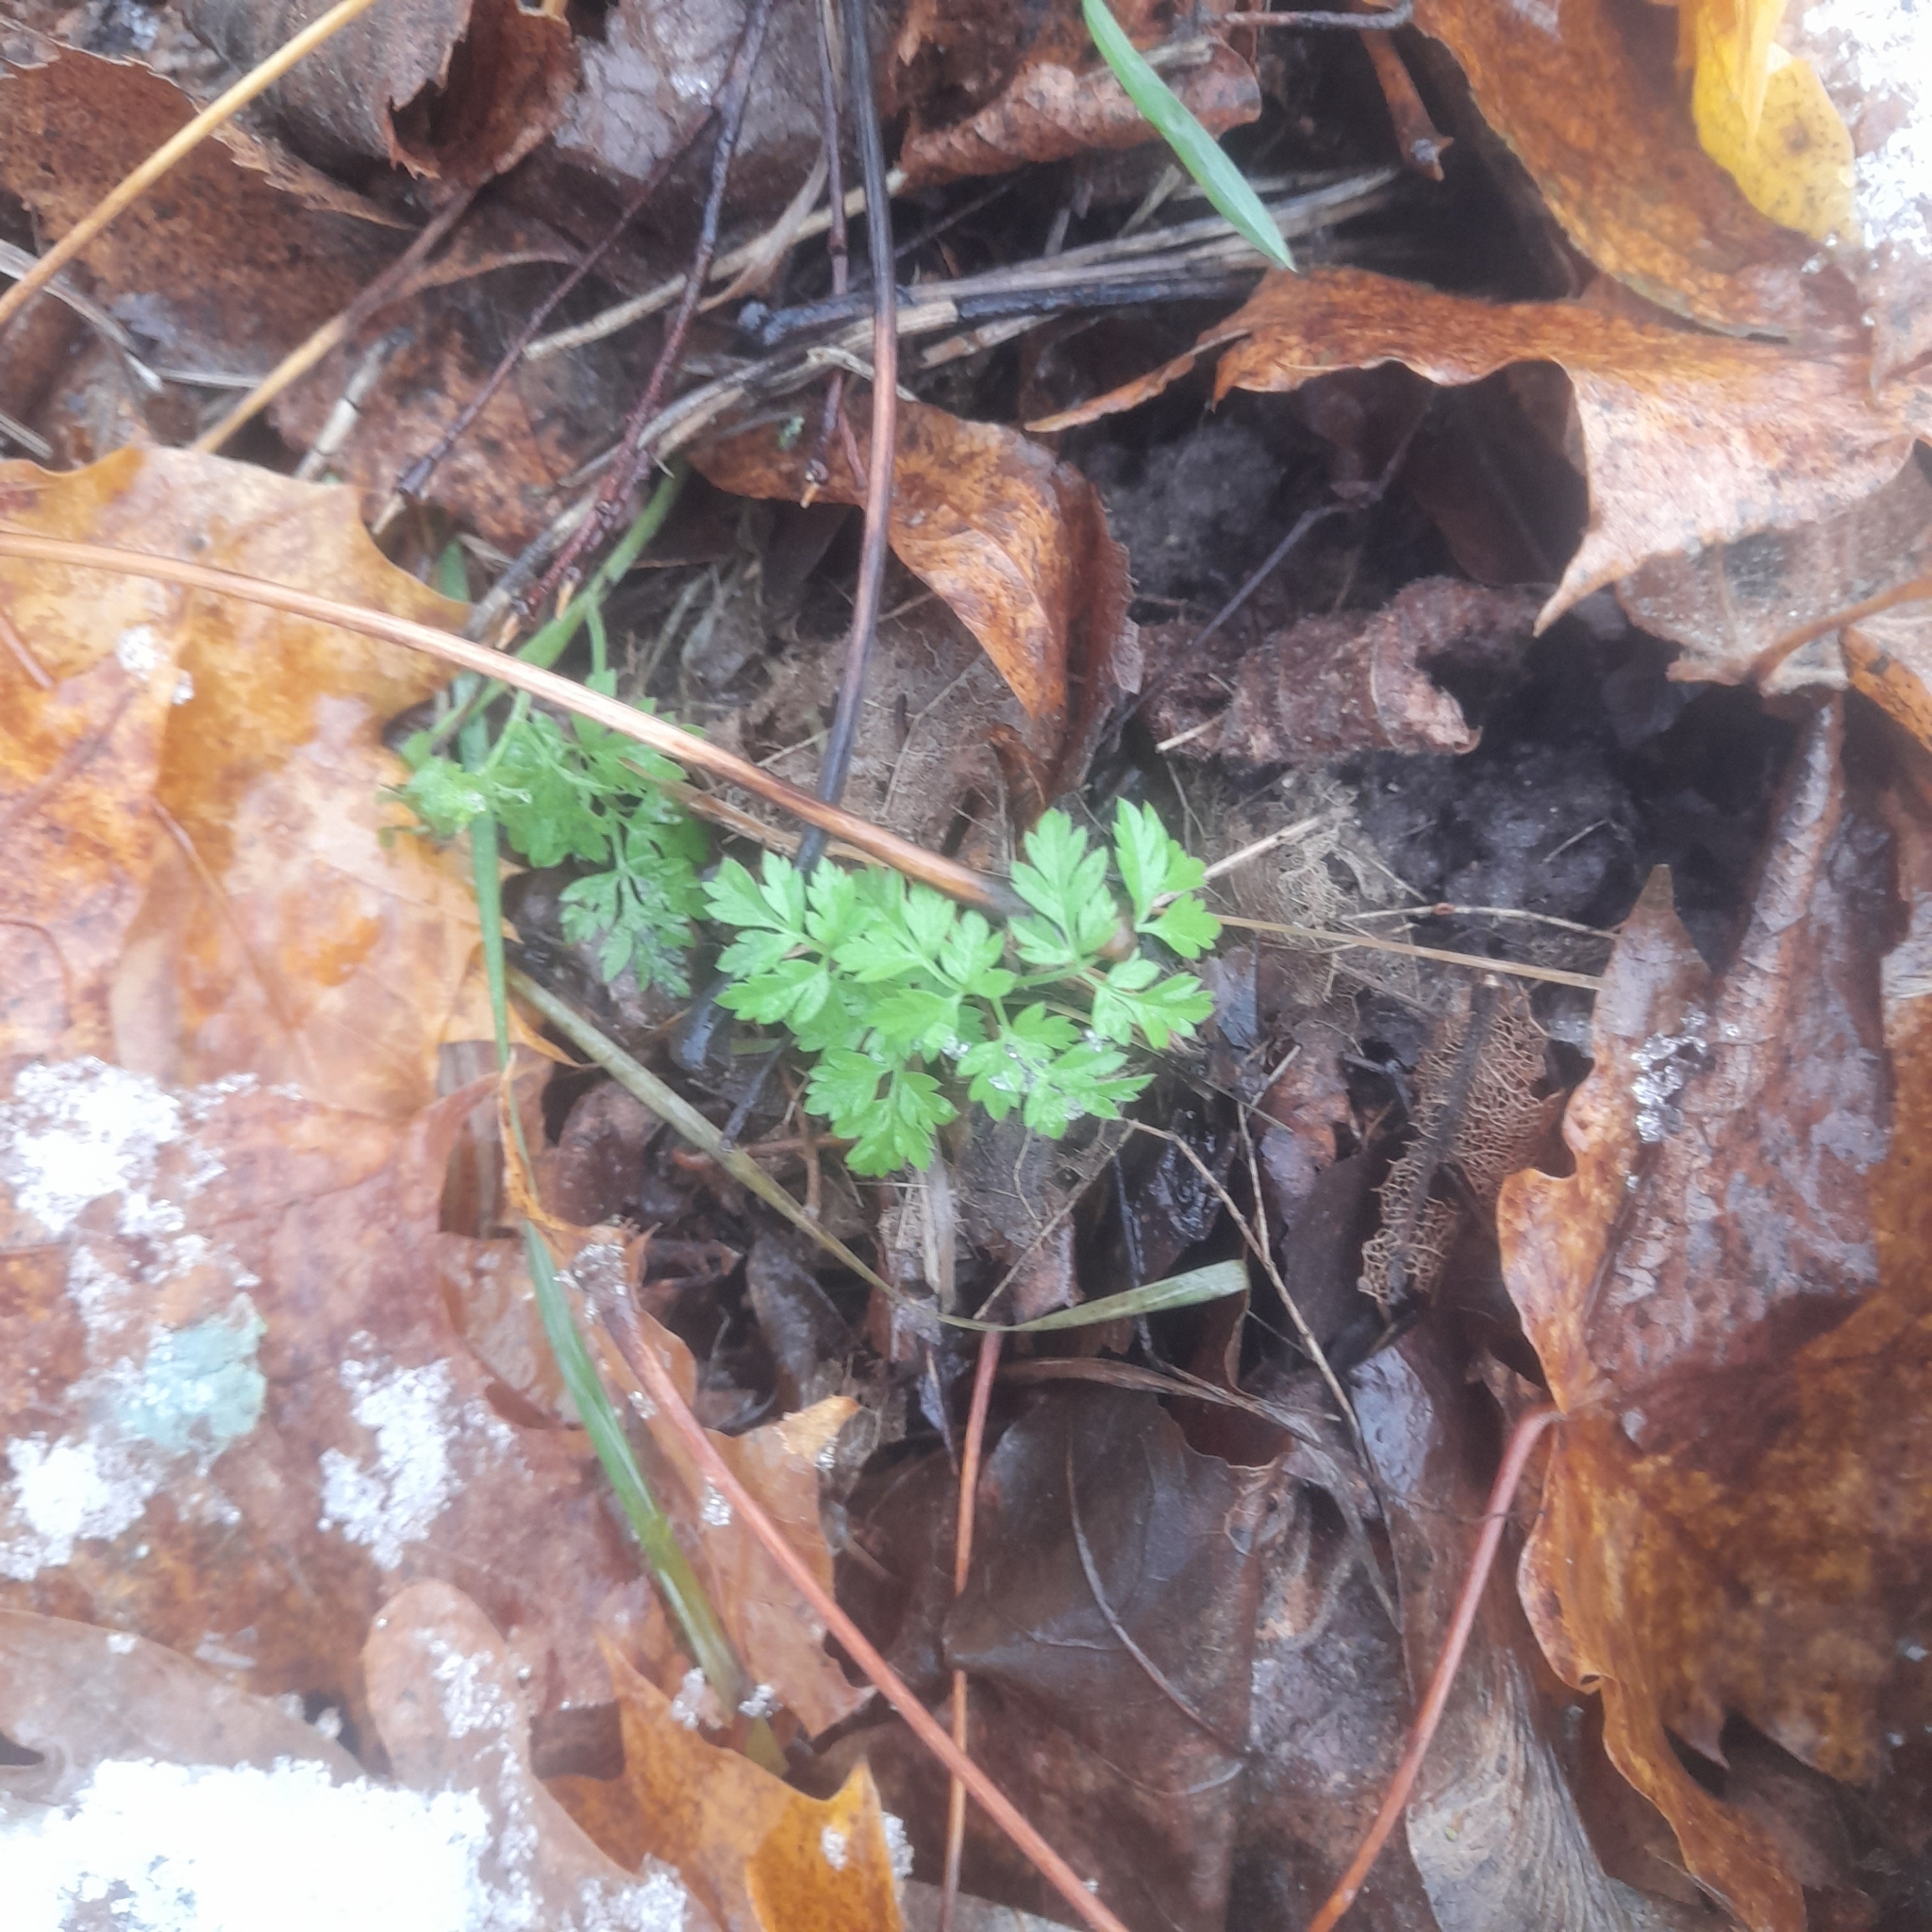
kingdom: Plantae
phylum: Tracheophyta
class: Magnoliopsida
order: Apiales
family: Apiaceae
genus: Anthriscus
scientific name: Anthriscus sylvestris
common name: Cow parsley
